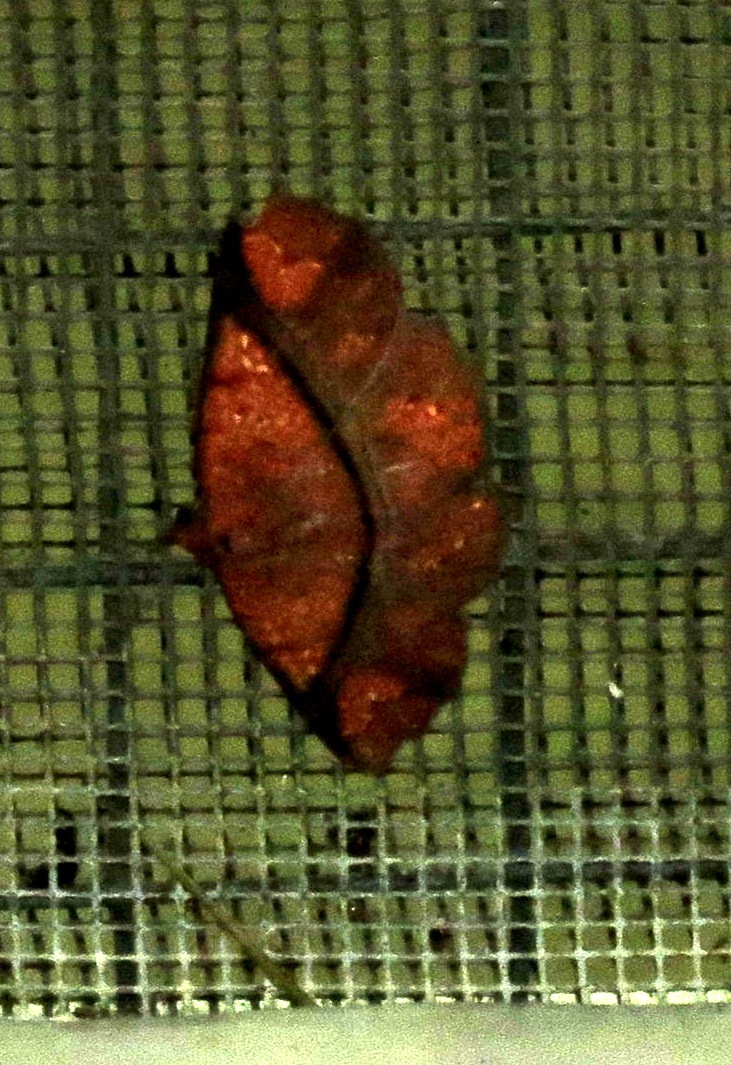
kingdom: Animalia
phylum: Arthropoda
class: Insecta
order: Lepidoptera
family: Erebidae
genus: Antiblemma
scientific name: Antiblemma subrutilans
